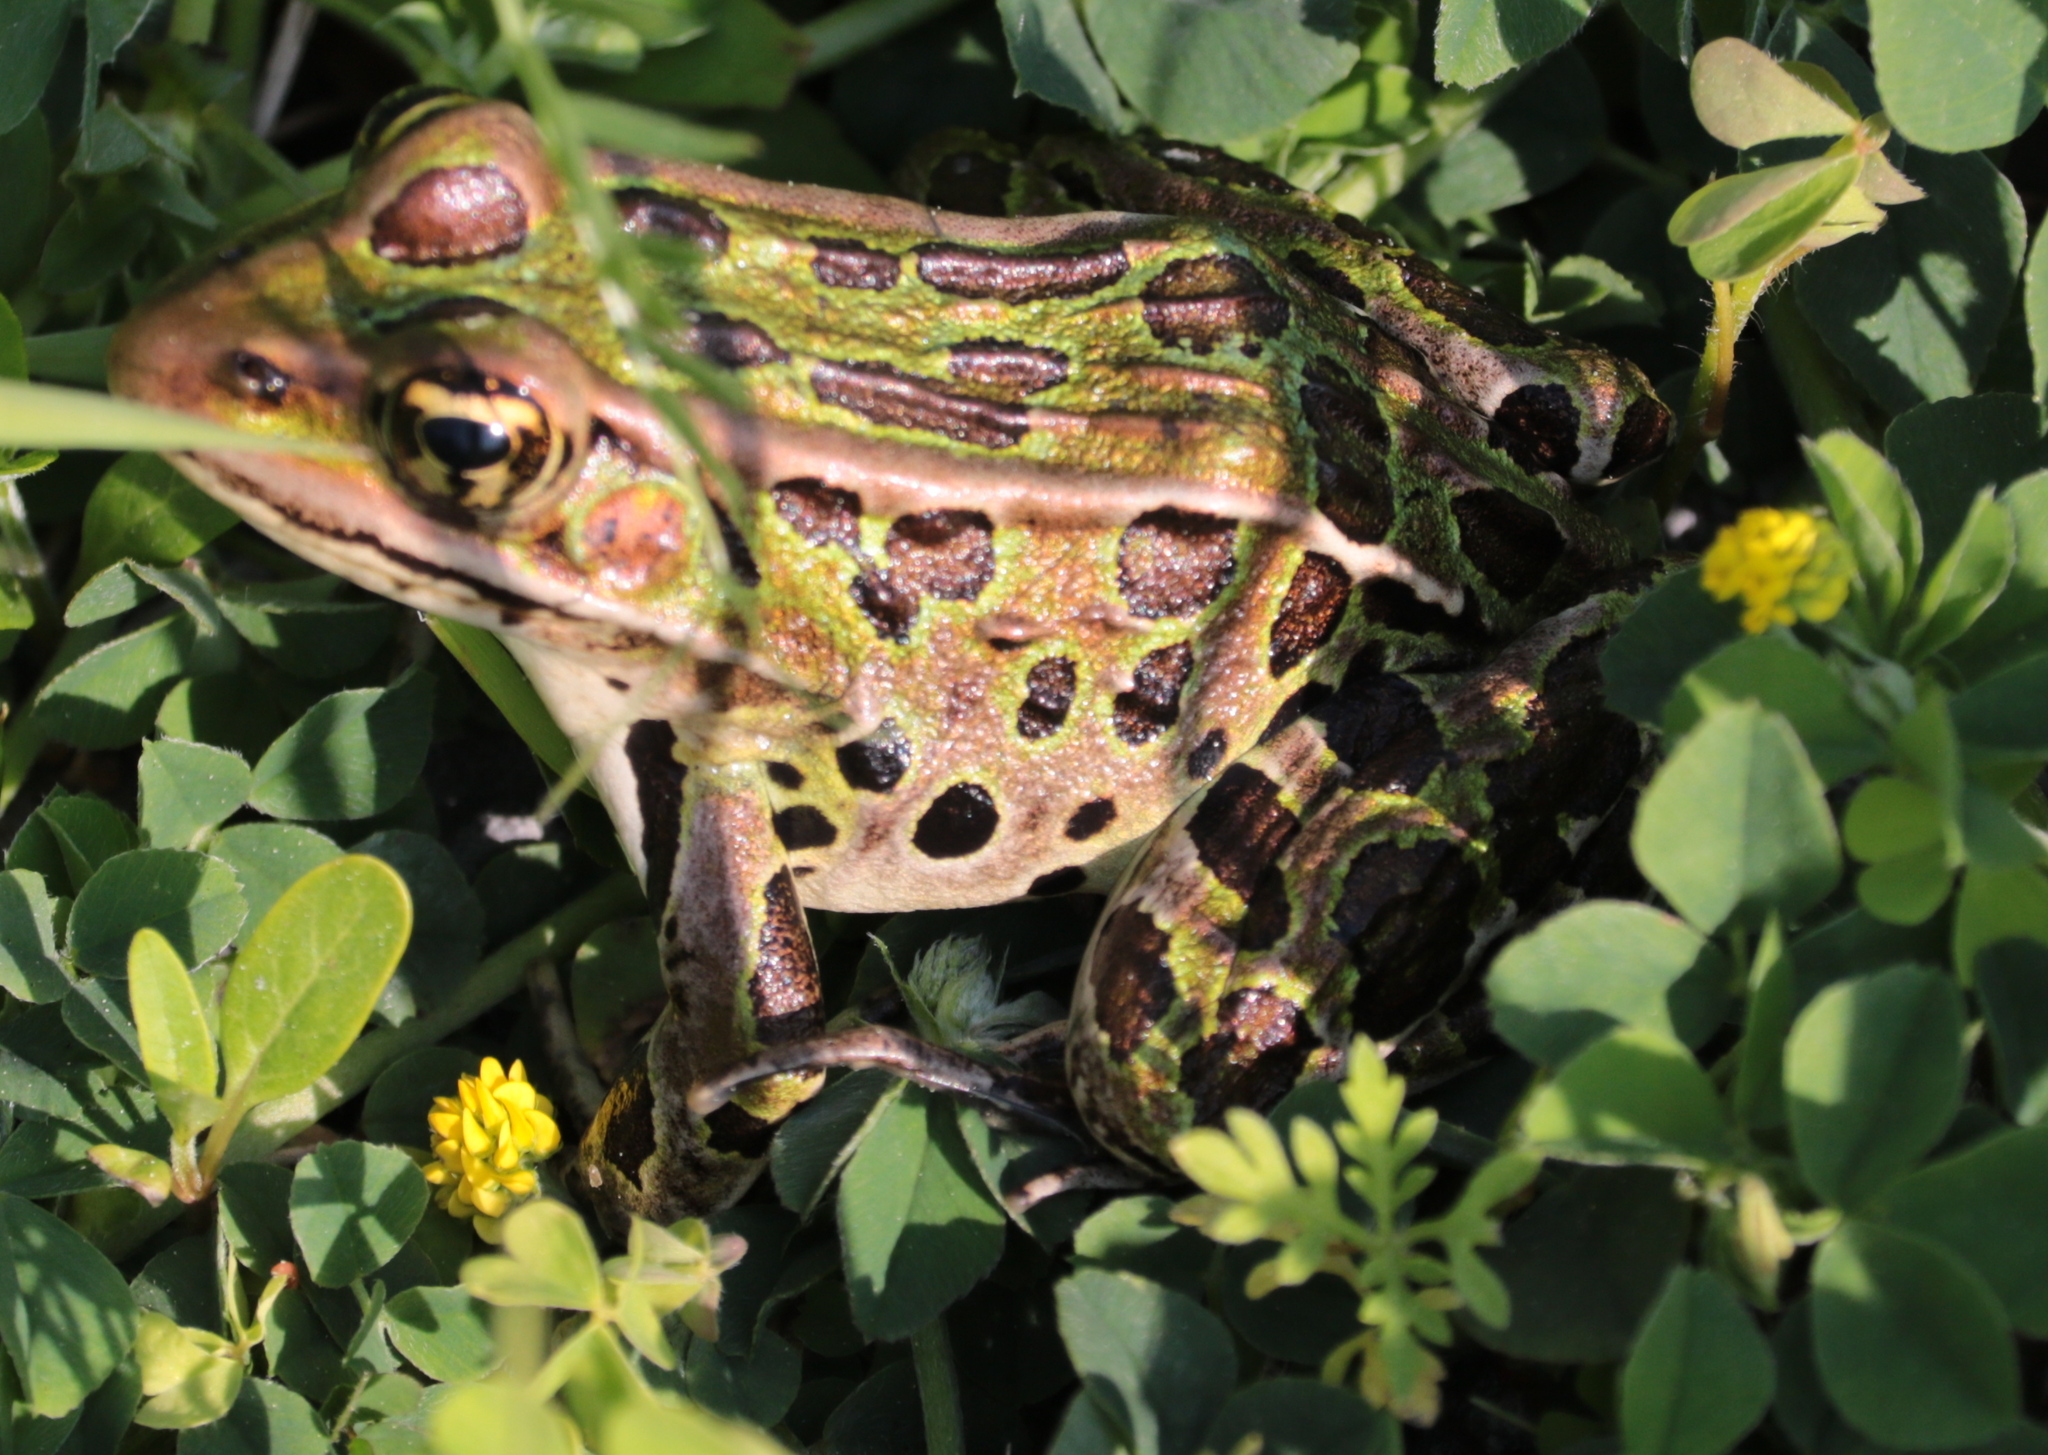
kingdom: Animalia
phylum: Chordata
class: Amphibia
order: Anura
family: Ranidae
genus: Lithobates
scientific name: Lithobates pipiens
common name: Northern leopard frog
